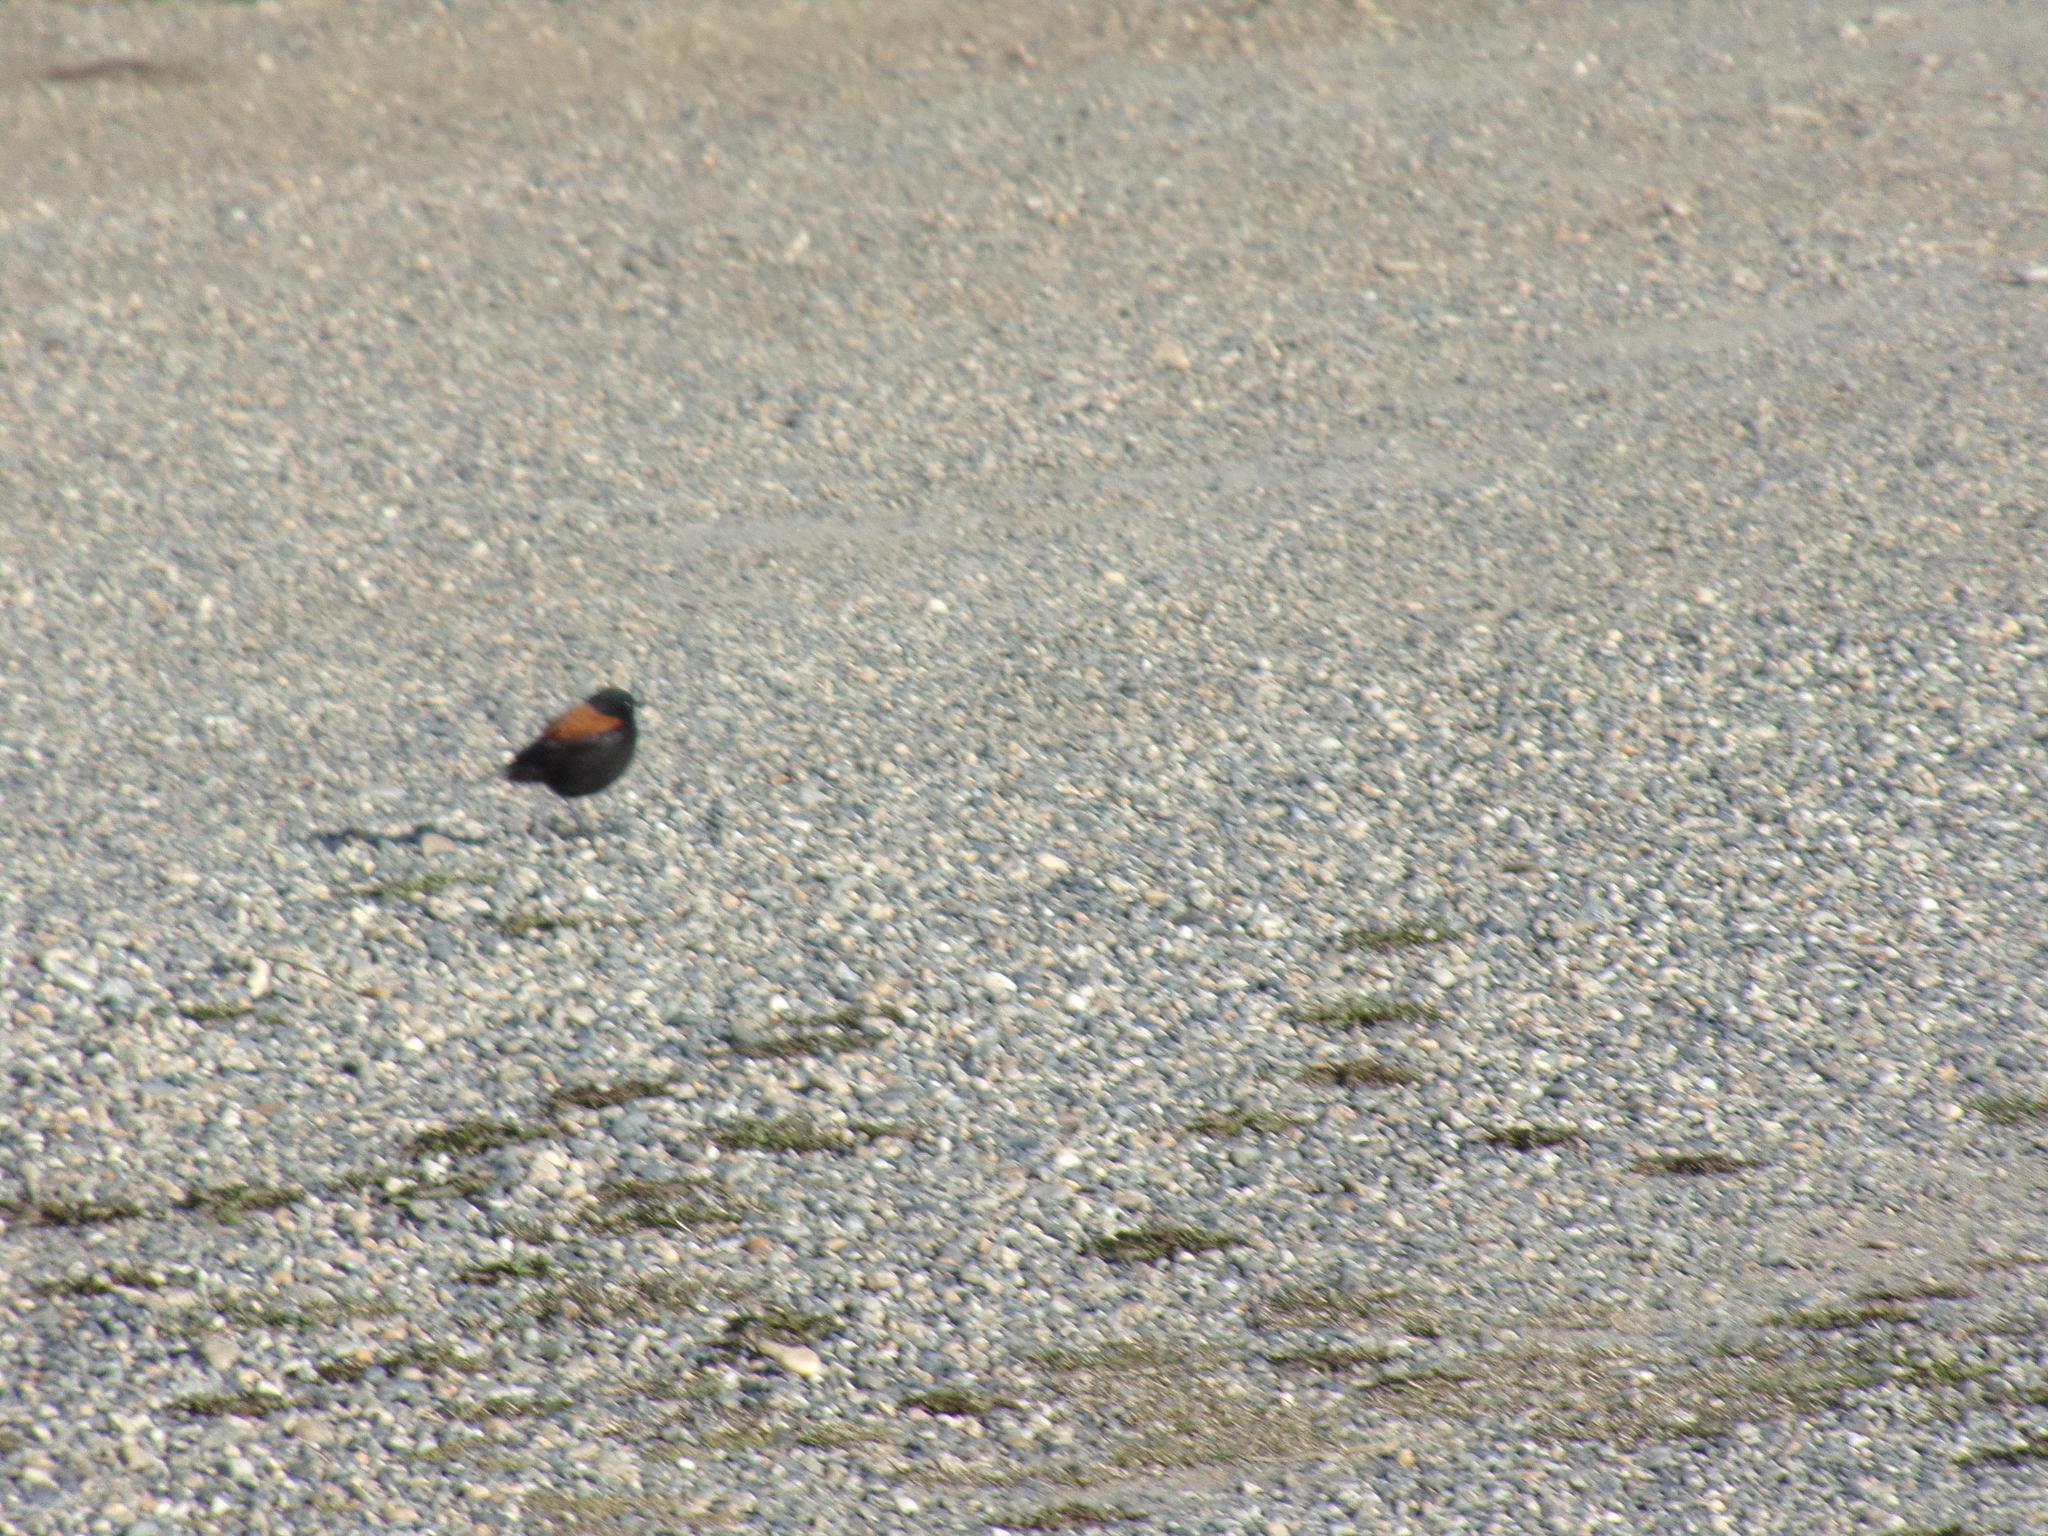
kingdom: Animalia
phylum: Chordata
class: Aves
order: Passeriformes
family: Tyrannidae
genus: Lessonia
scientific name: Lessonia rufa
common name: Austral negrito
